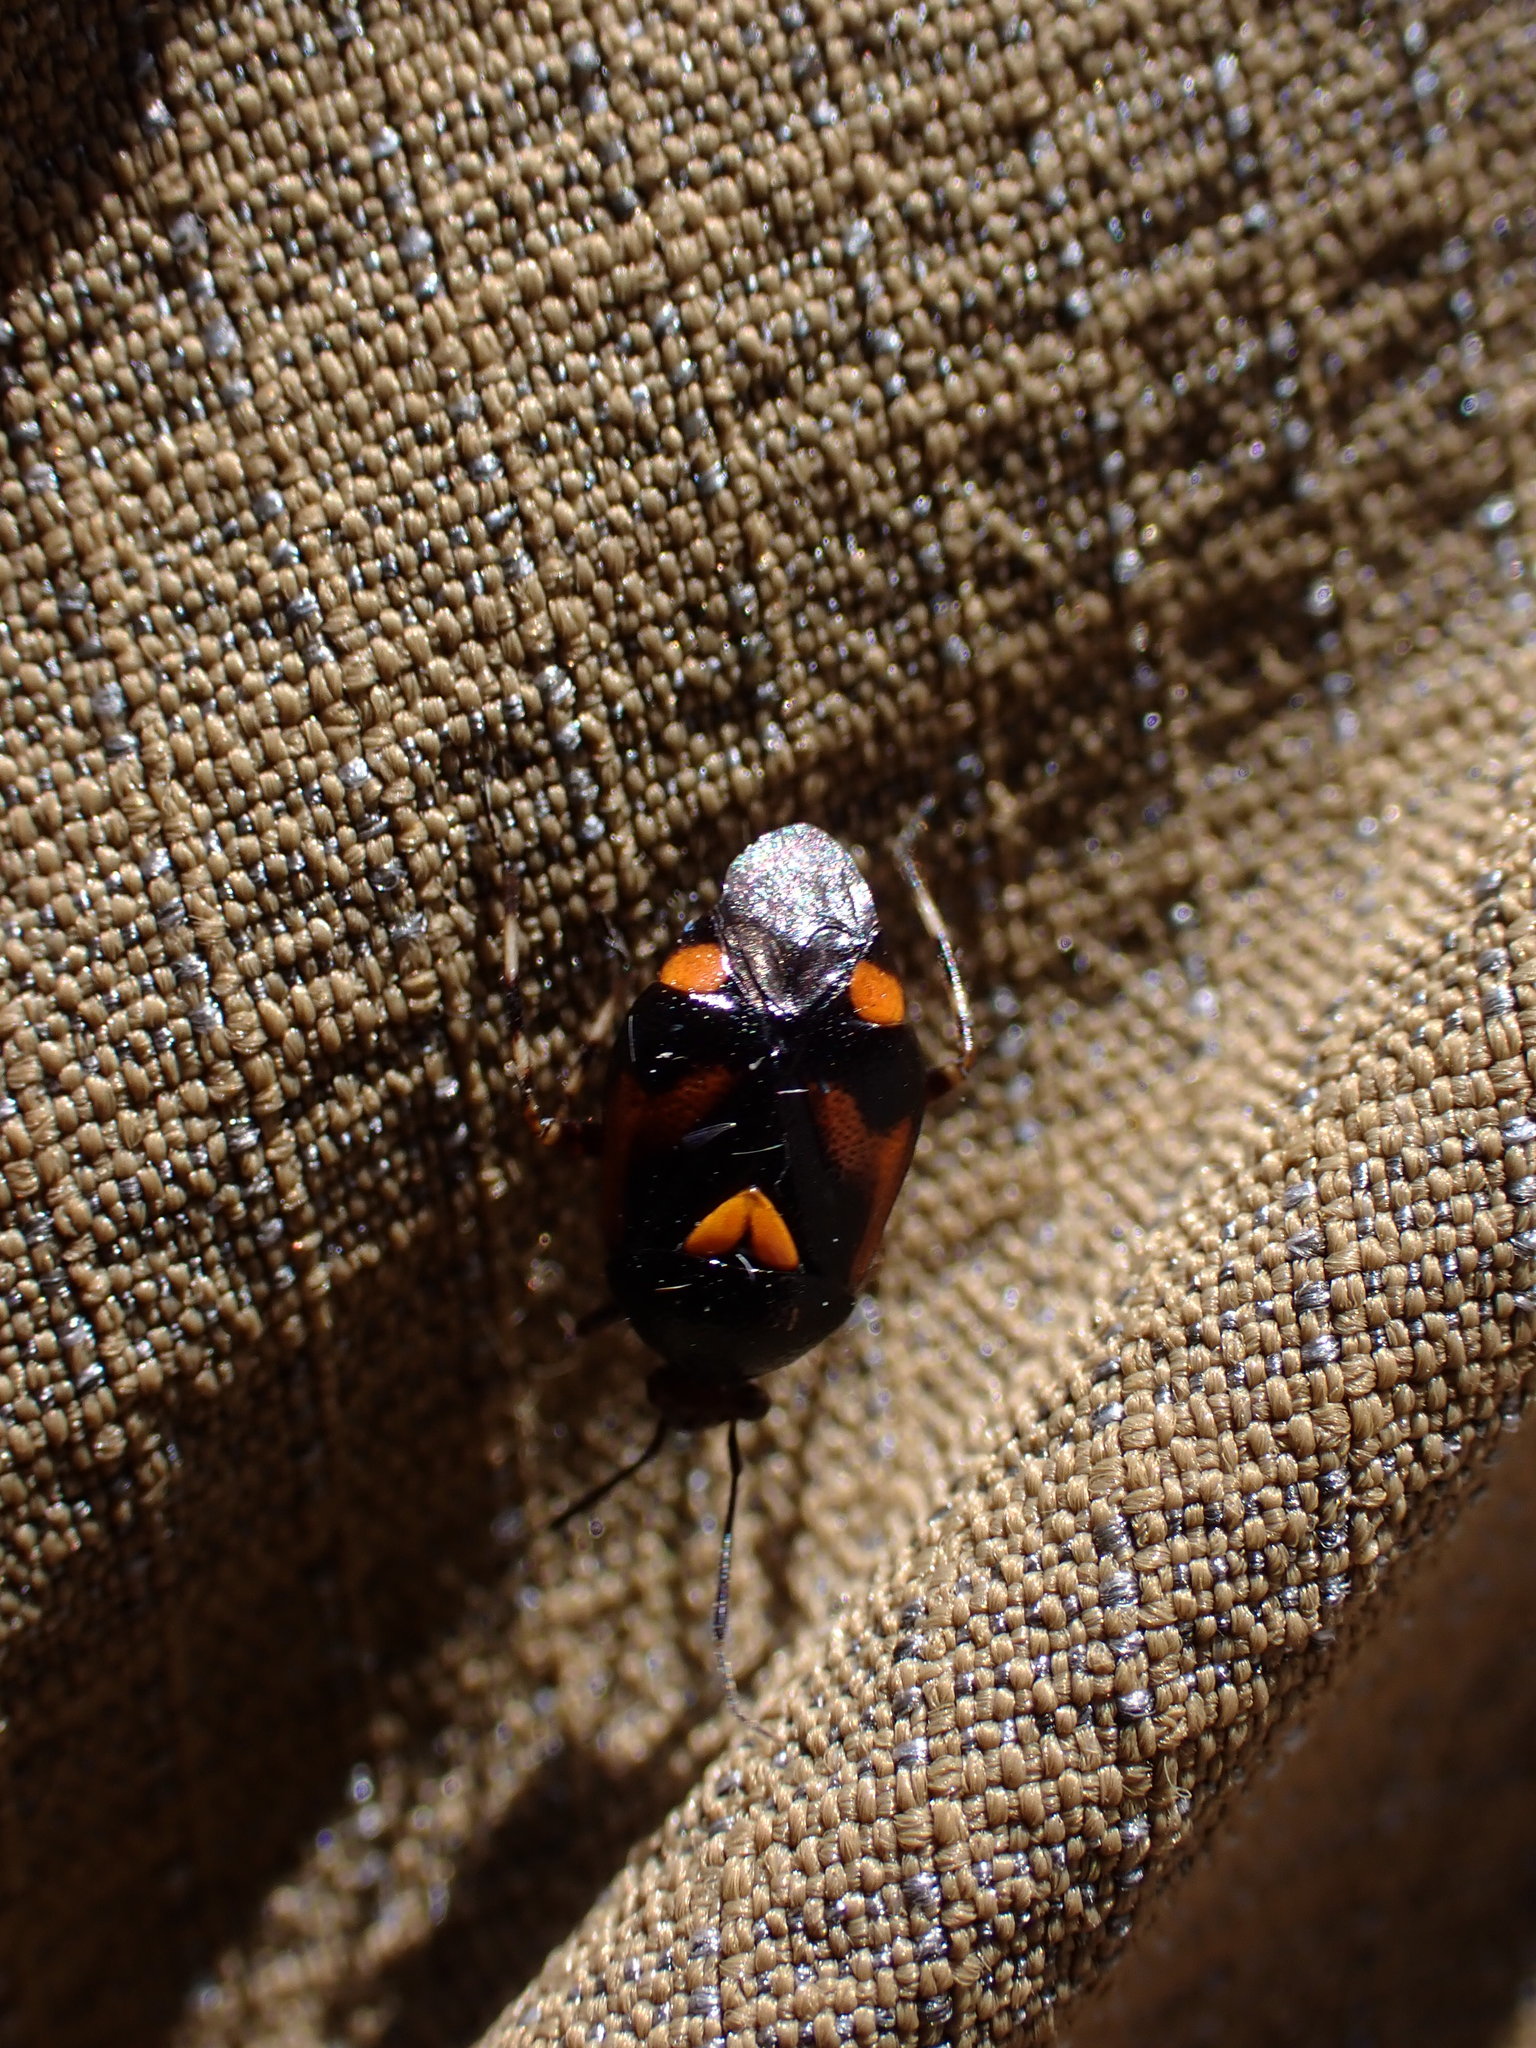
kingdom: Animalia
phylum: Arthropoda
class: Insecta
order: Hemiptera
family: Miridae
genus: Deraeocoris
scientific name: Deraeocoris schach
